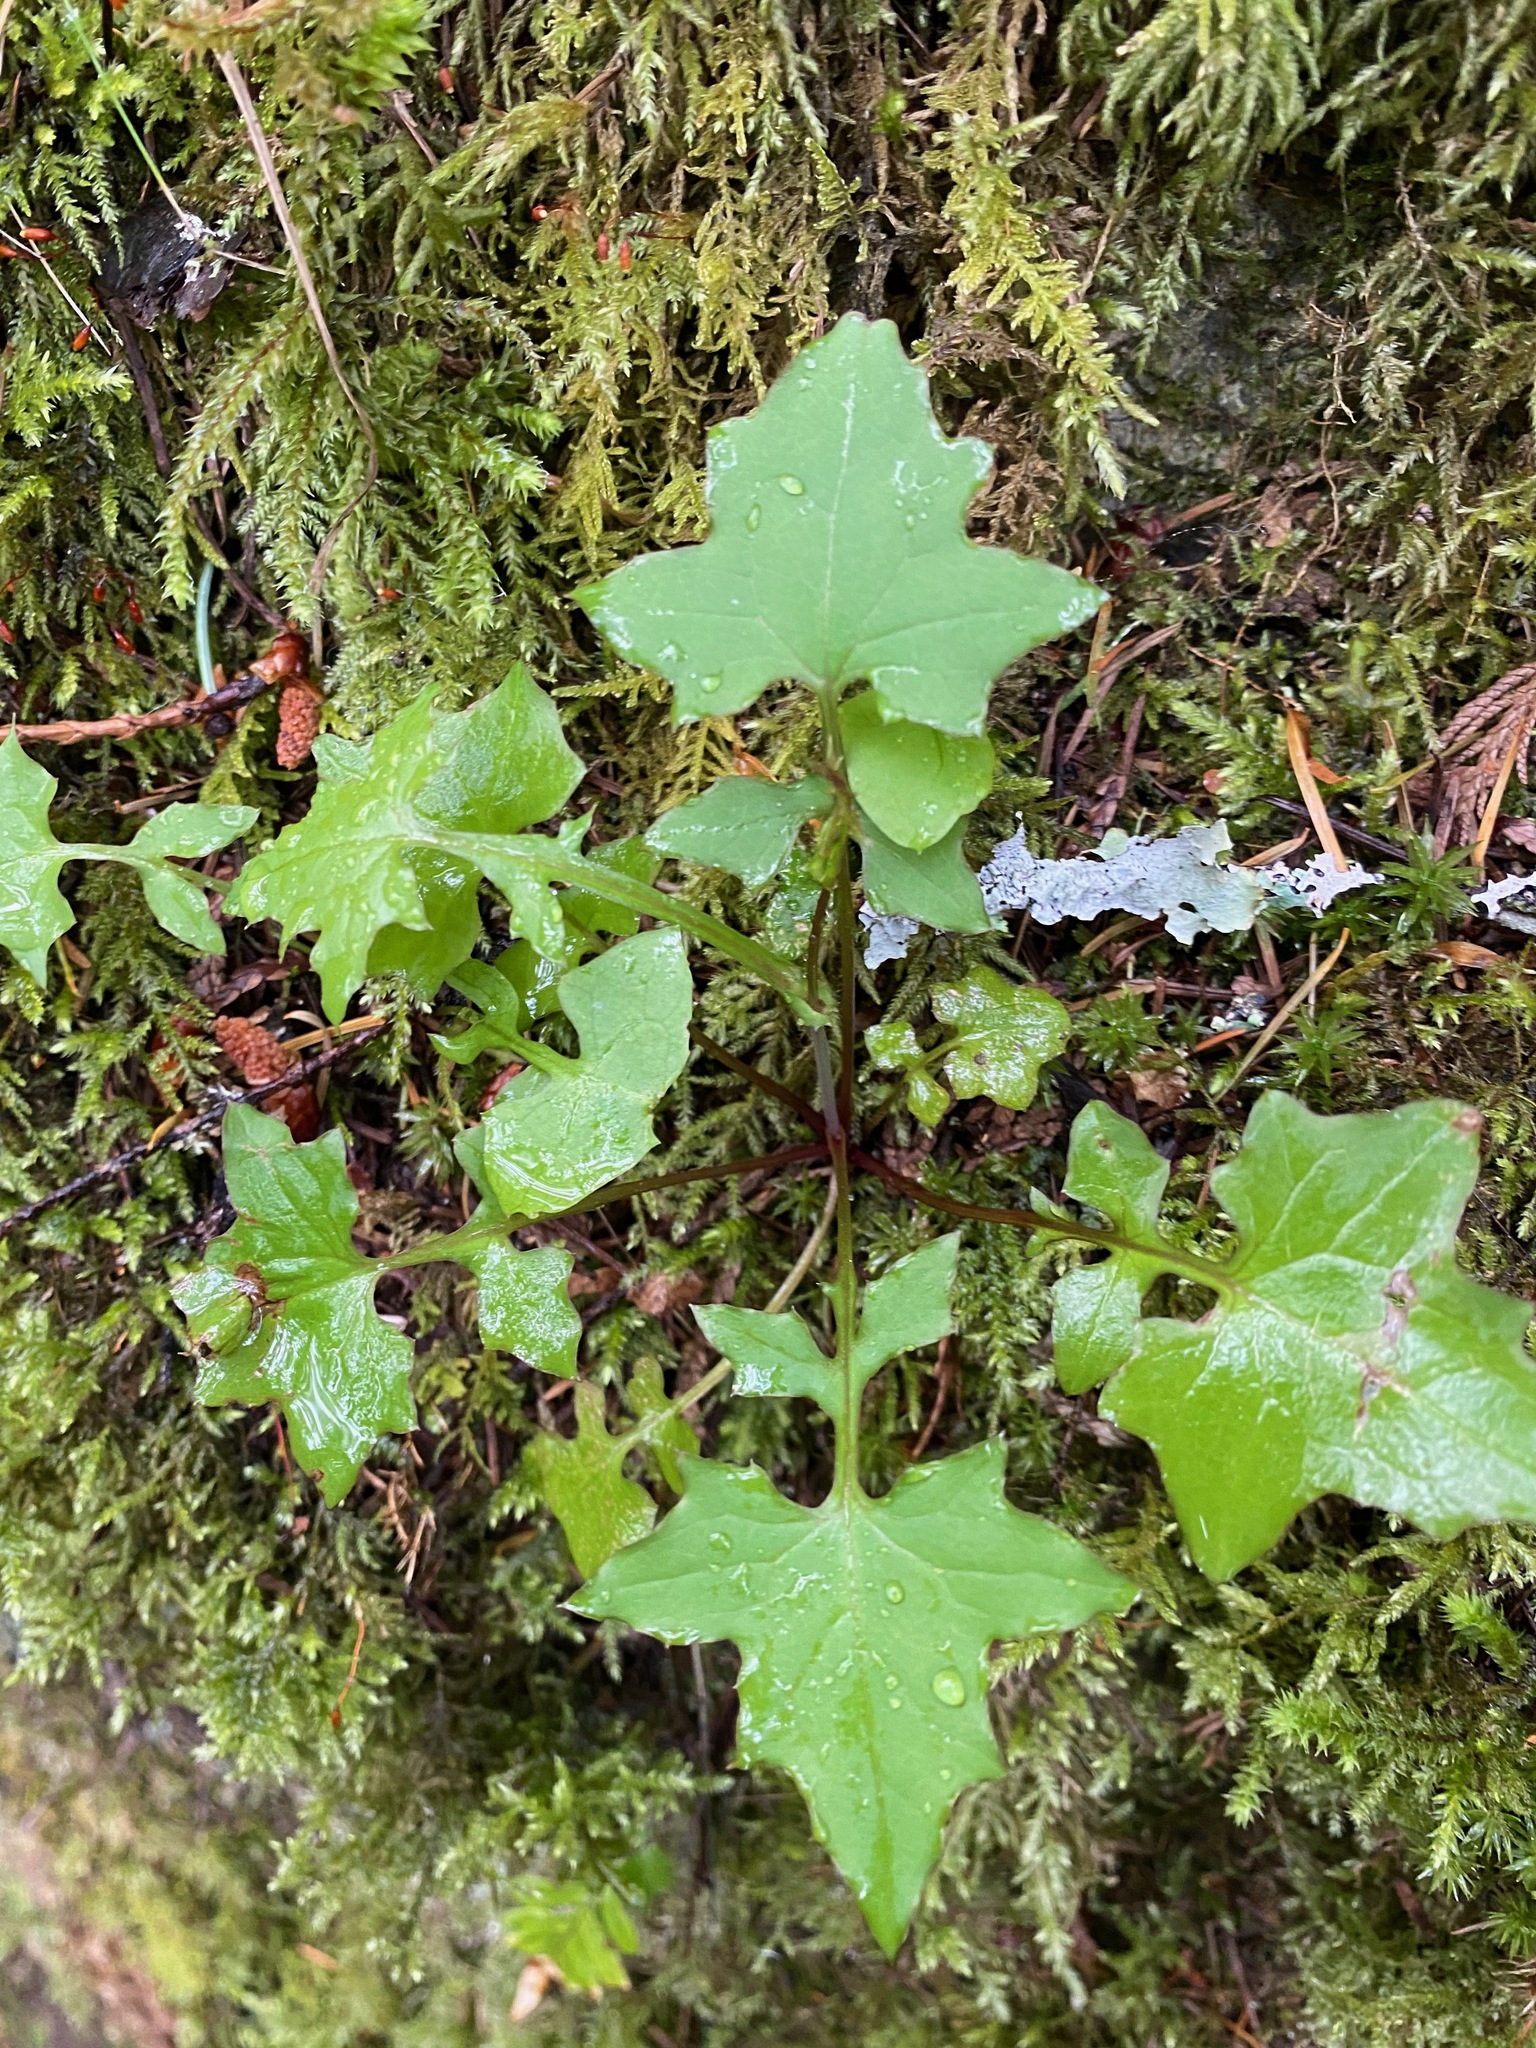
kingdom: Plantae
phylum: Tracheophyta
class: Magnoliopsida
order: Asterales
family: Asteraceae
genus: Mycelis
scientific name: Mycelis muralis
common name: Wall lettuce
